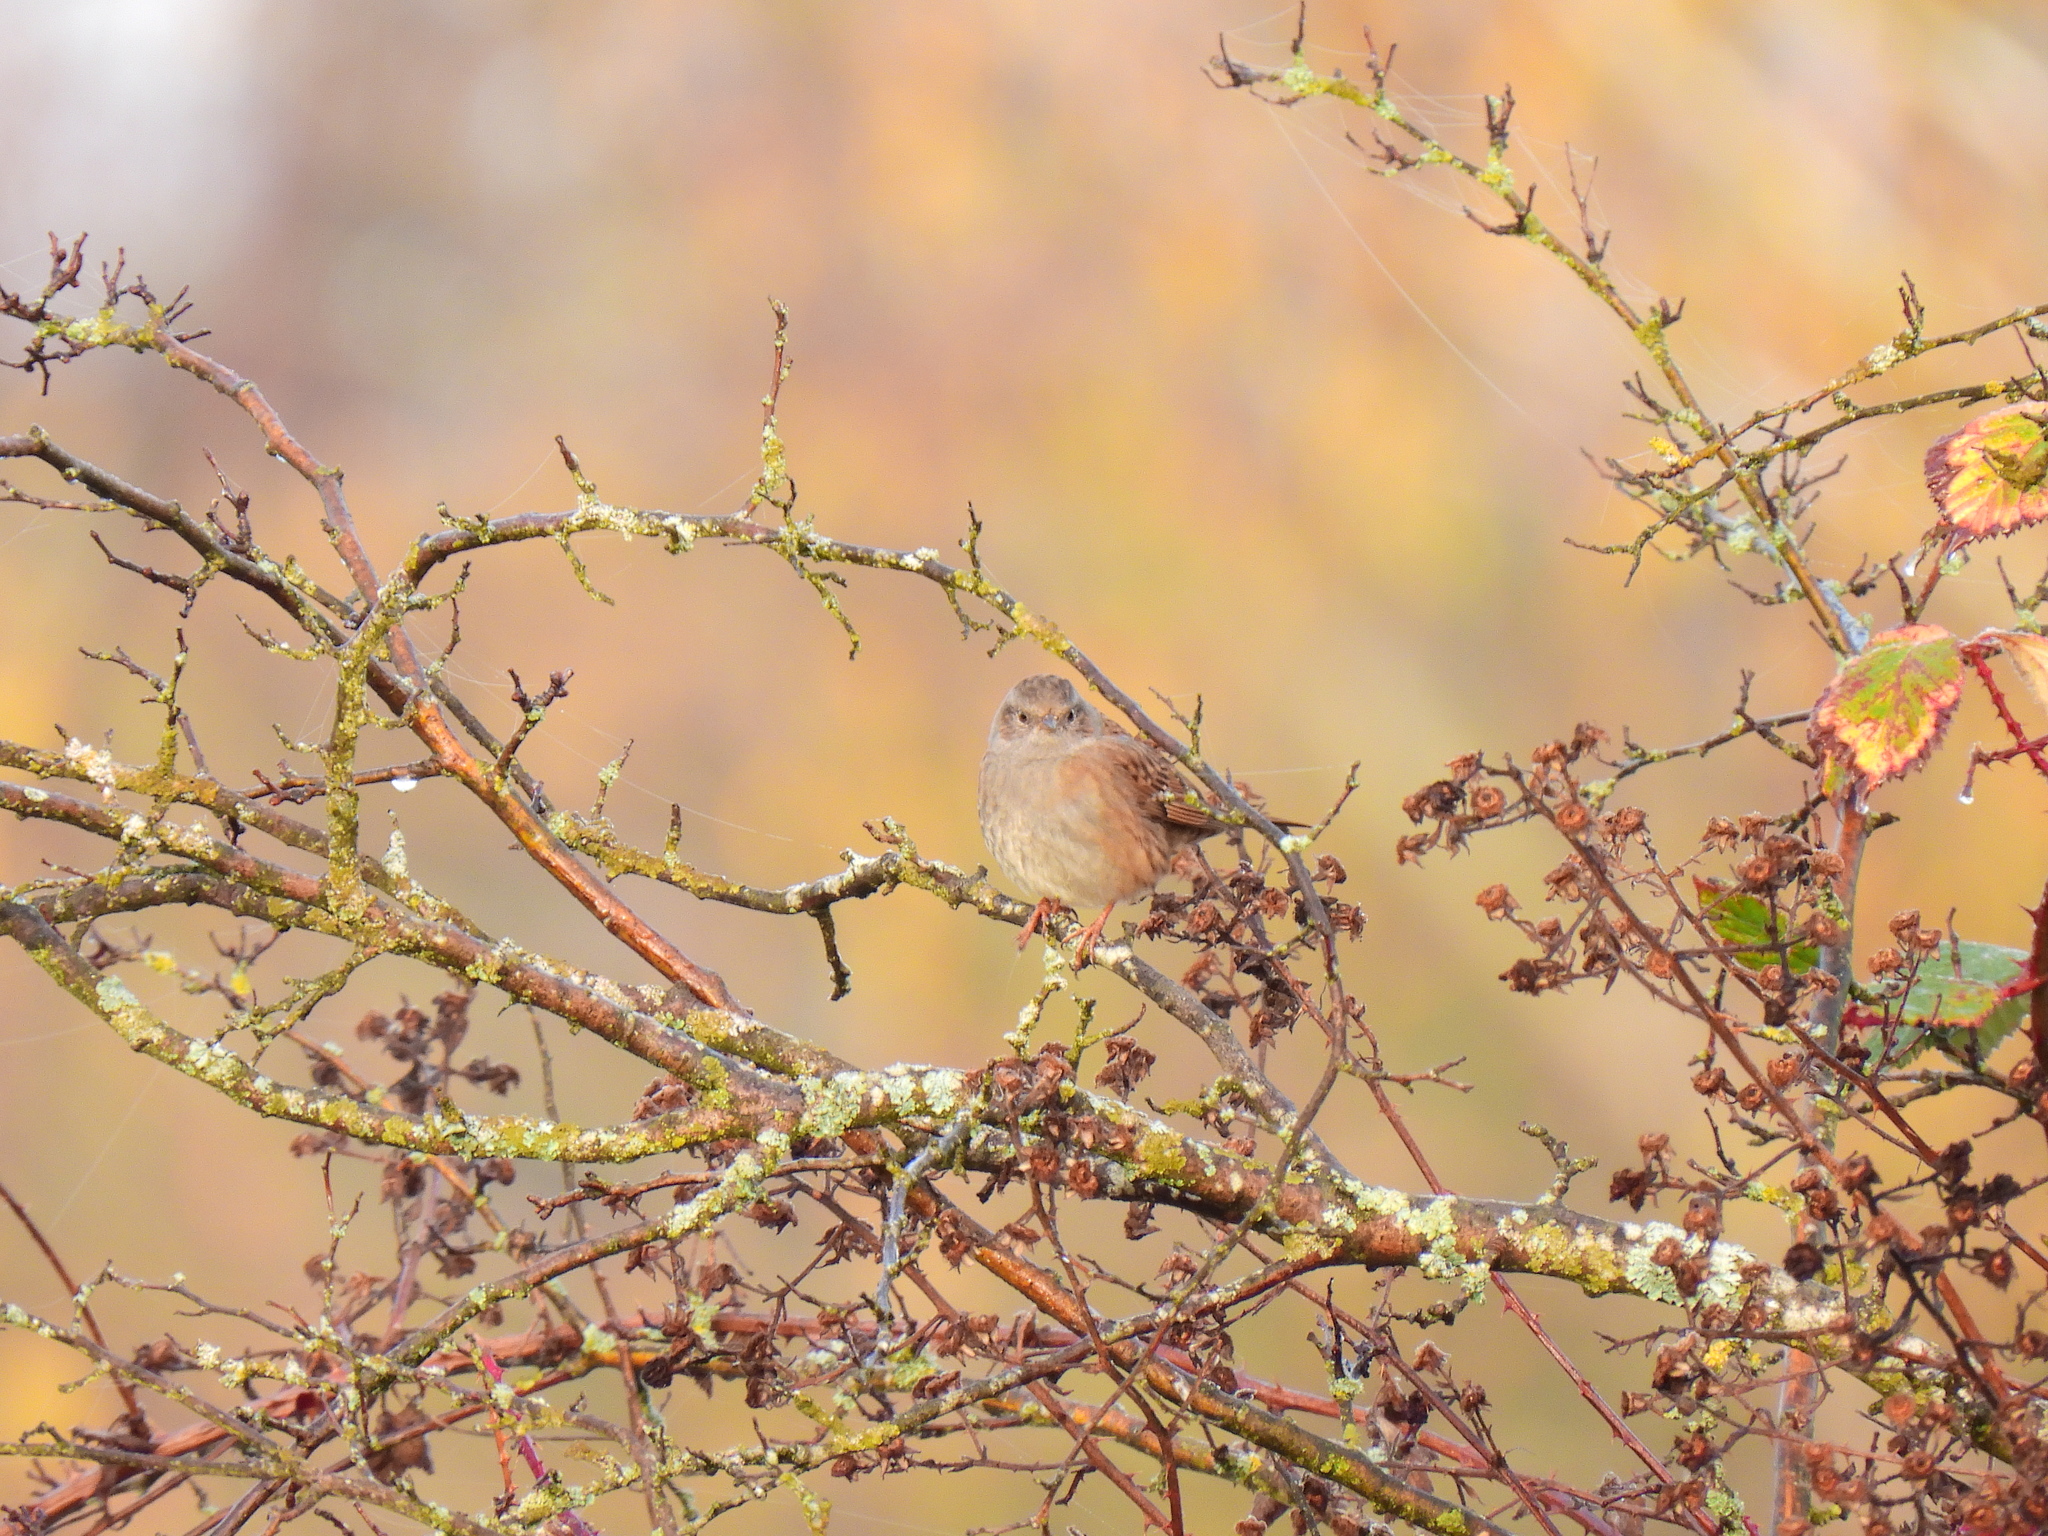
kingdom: Animalia
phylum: Chordata
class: Aves
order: Passeriformes
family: Prunellidae
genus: Prunella
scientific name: Prunella modularis
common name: Dunnock
